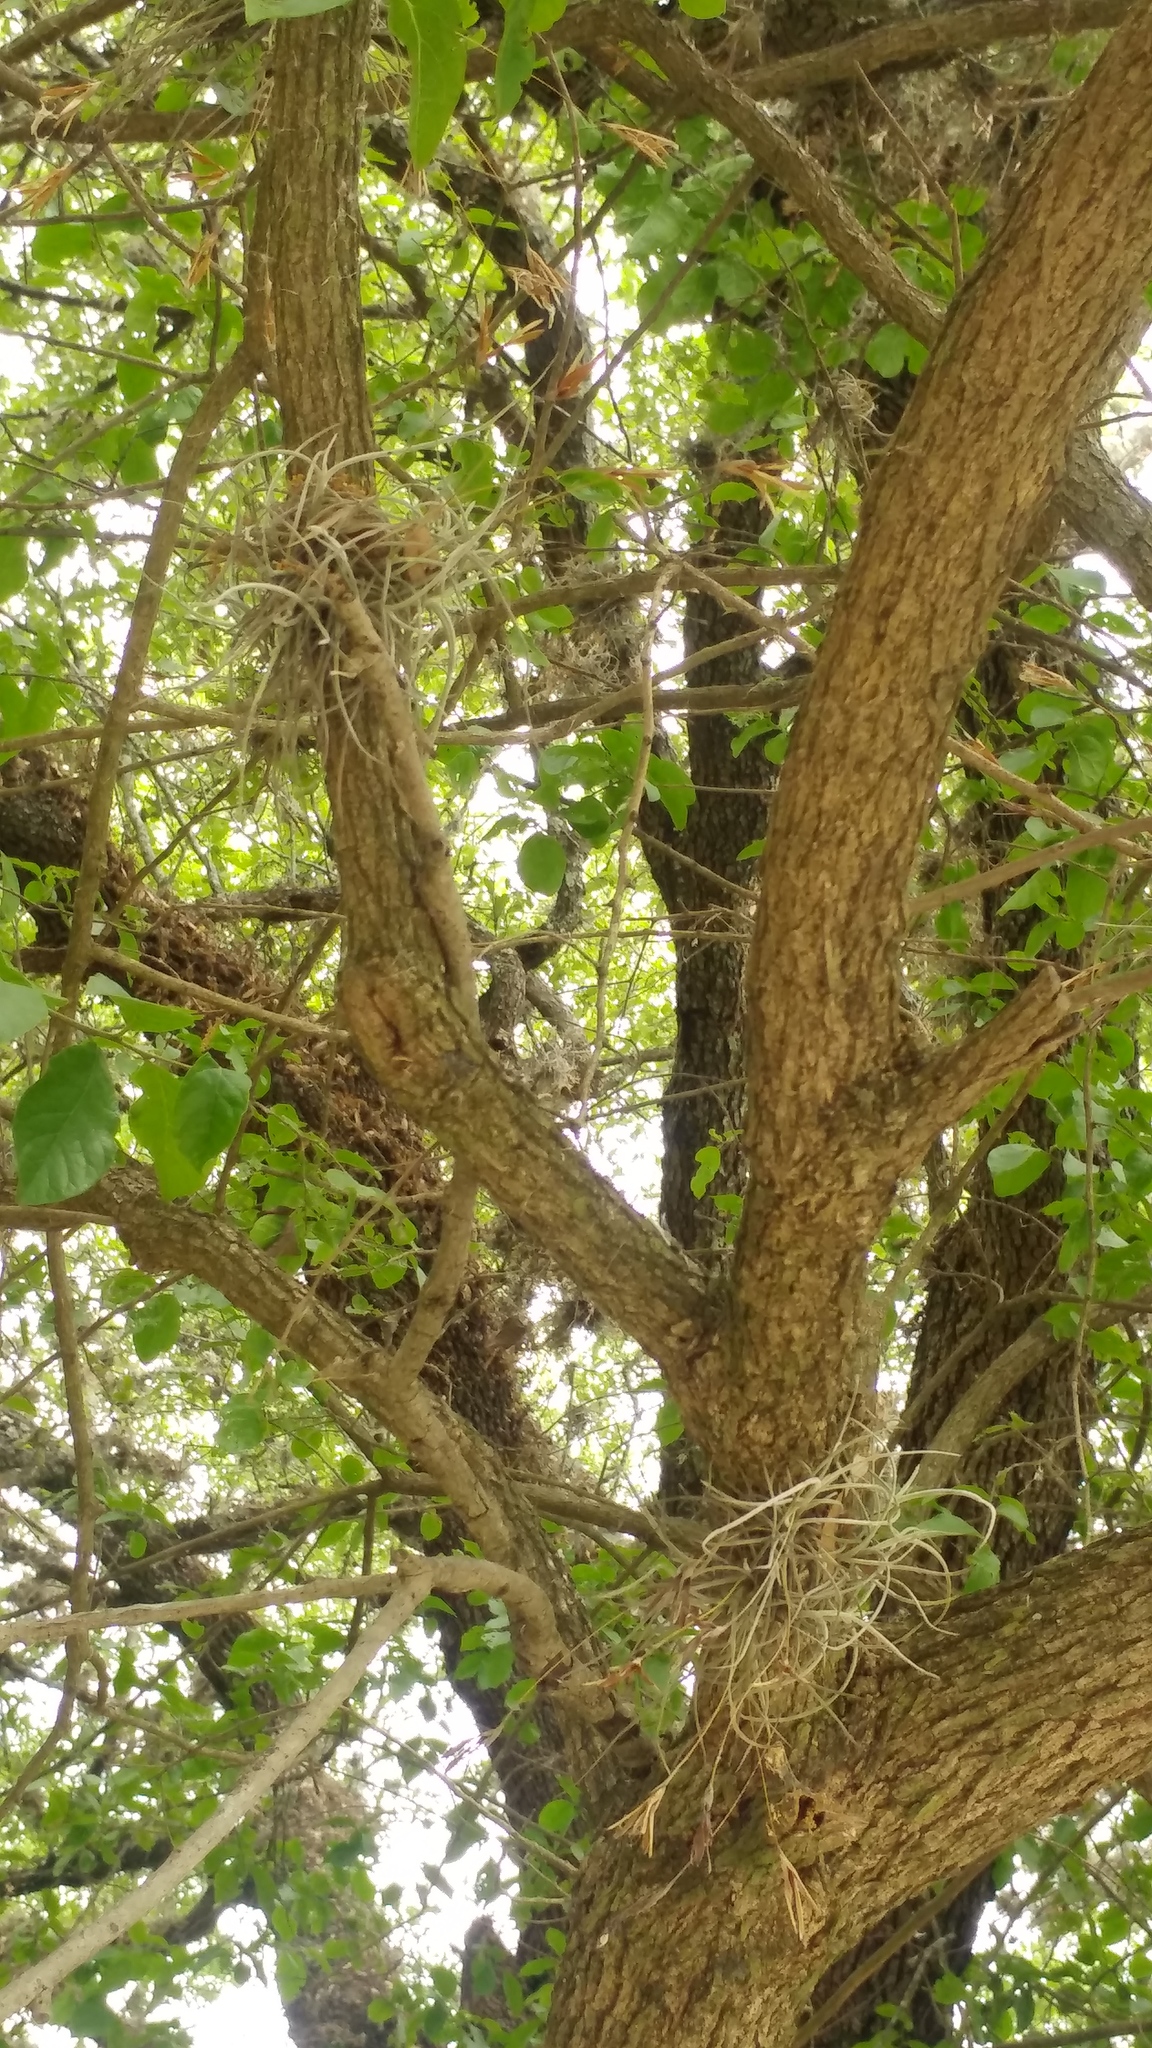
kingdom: Plantae
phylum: Tracheophyta
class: Liliopsida
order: Poales
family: Bromeliaceae
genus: Tillandsia
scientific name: Tillandsia recurvata
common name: Small ballmoss
